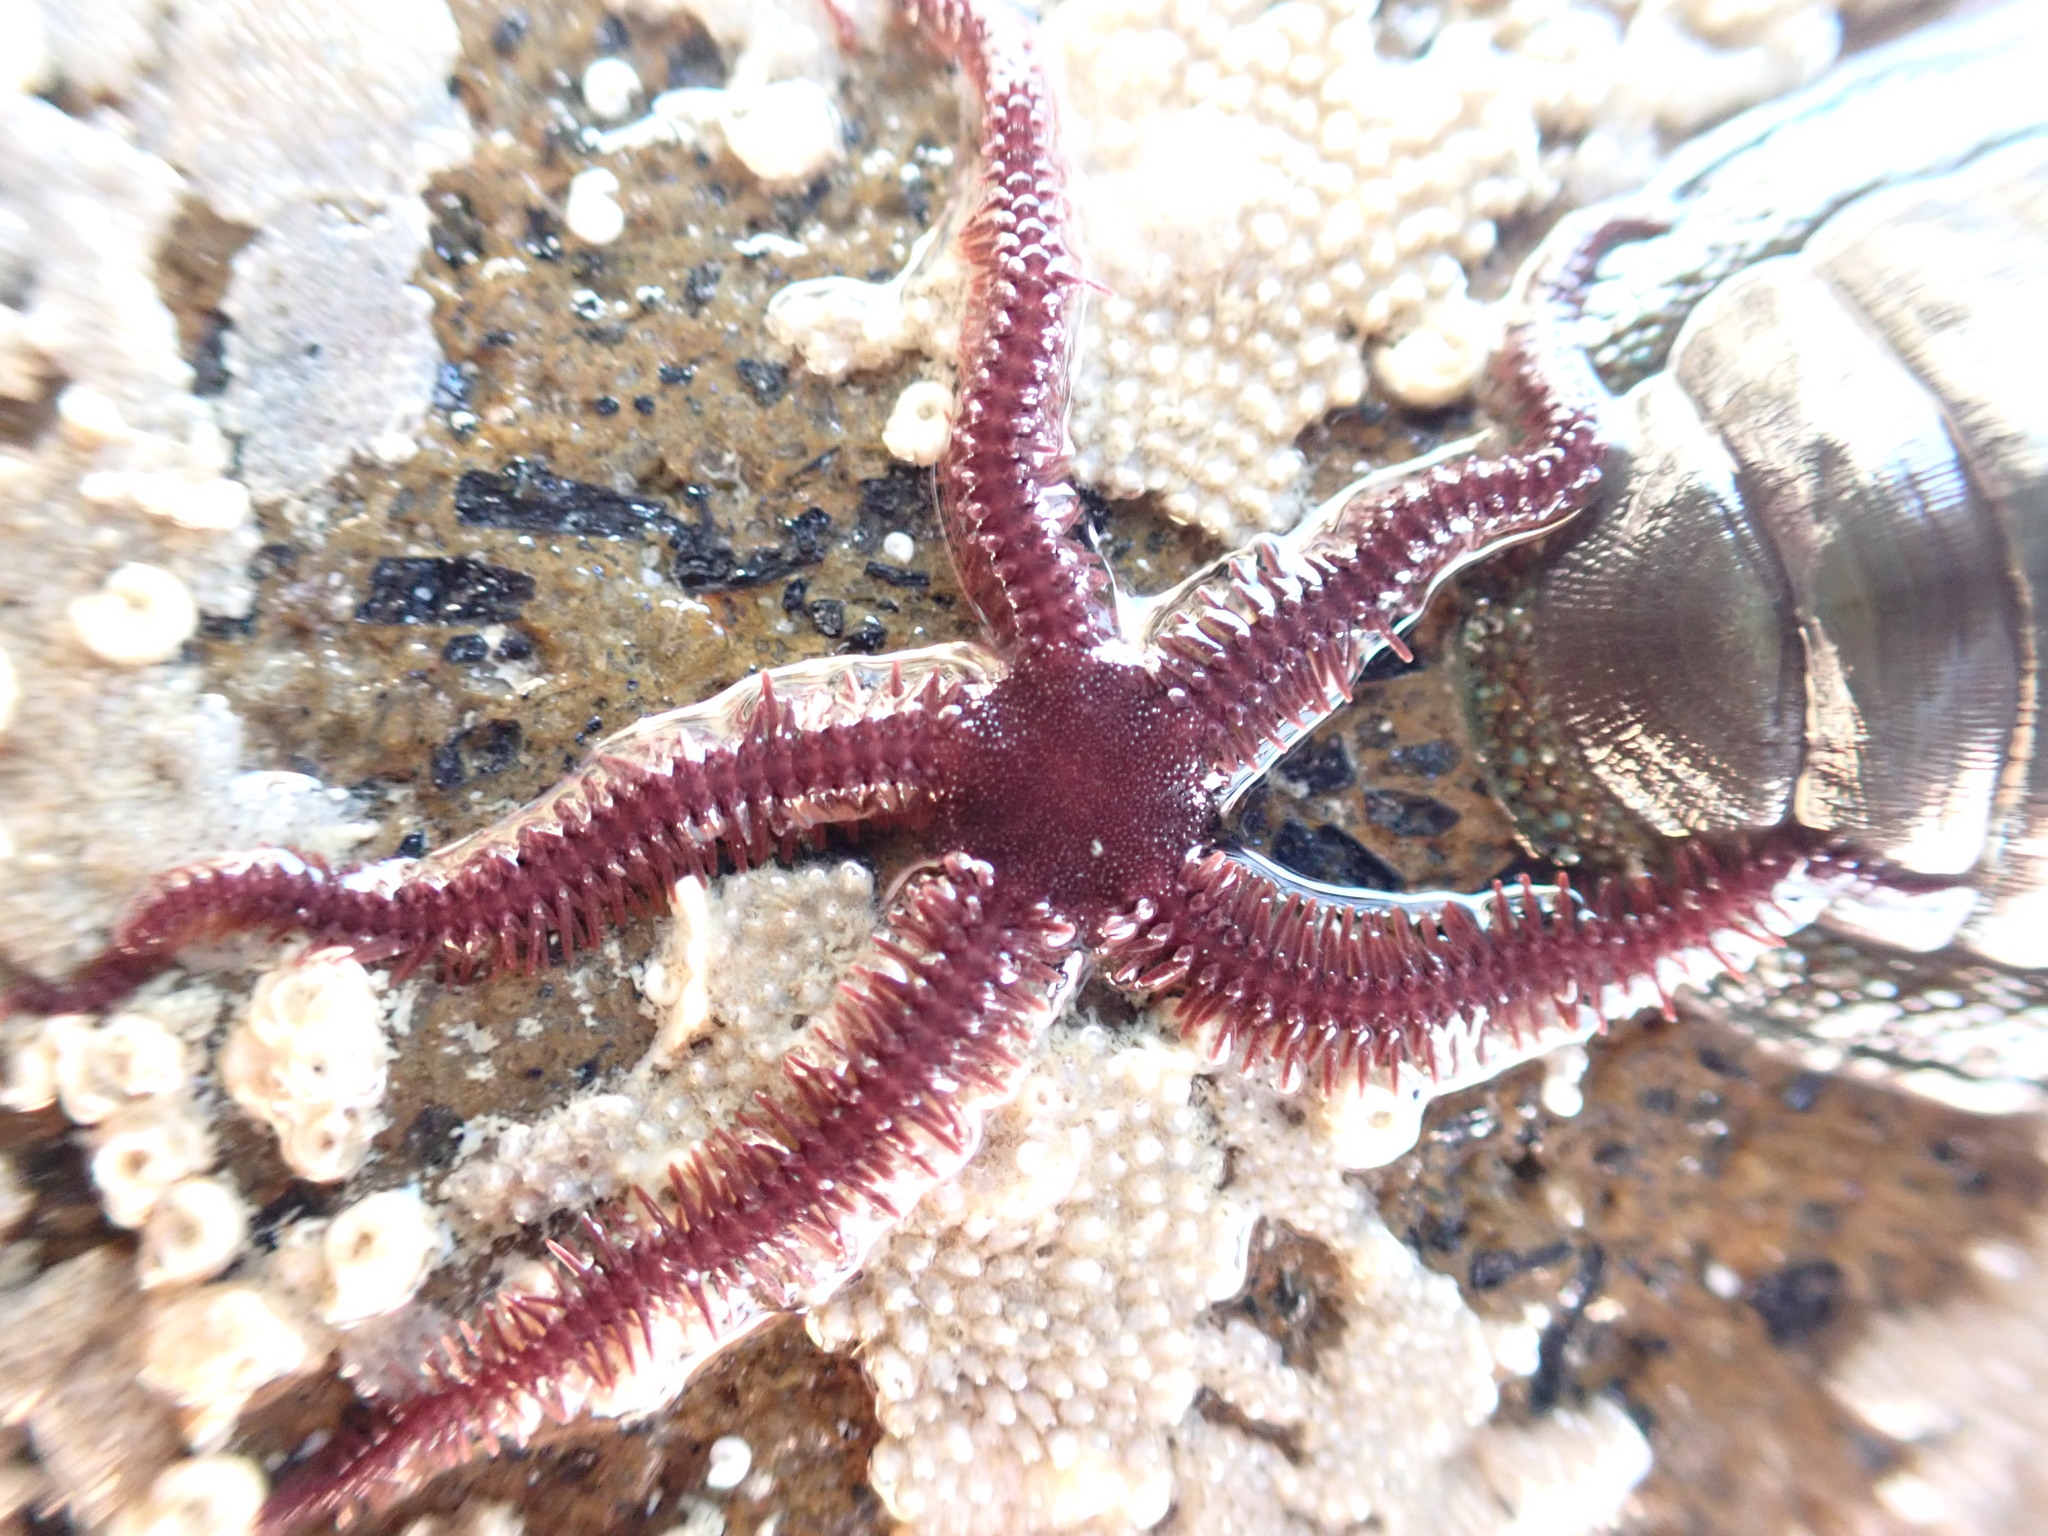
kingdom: Animalia
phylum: Echinodermata
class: Ophiuroidea
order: Ophiacanthida
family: Ophiopteridae
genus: Ophiopteris
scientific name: Ophiopteris antipodum
